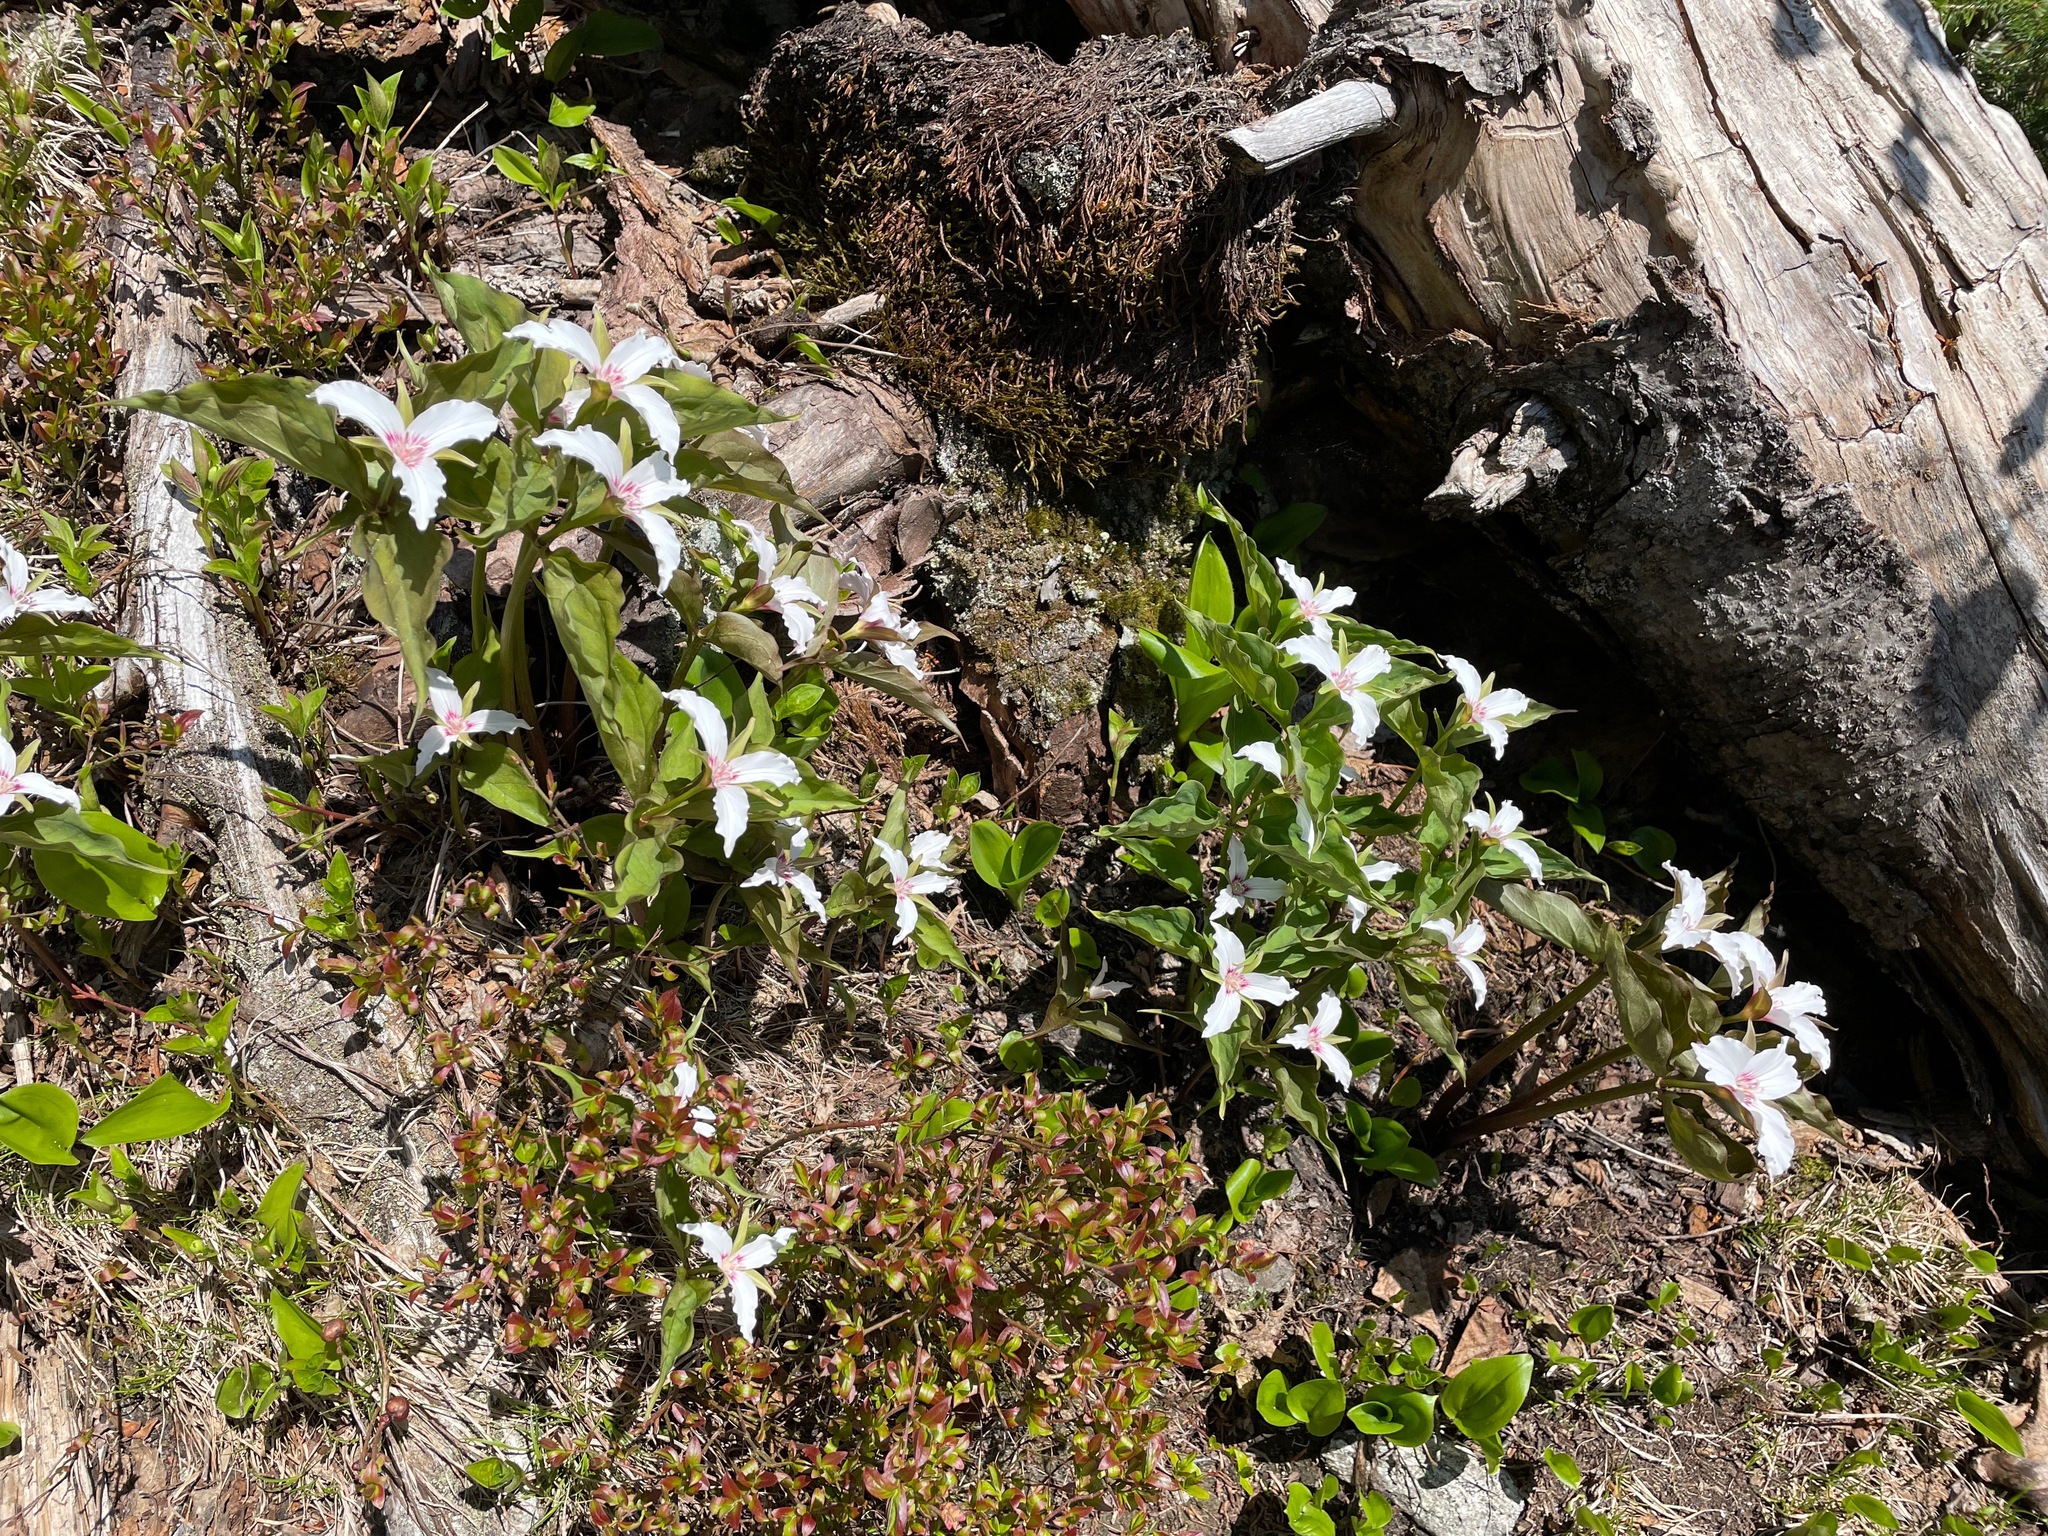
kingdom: Plantae
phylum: Tracheophyta
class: Liliopsida
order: Liliales
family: Melanthiaceae
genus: Trillium
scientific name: Trillium undulatum
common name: Paint trillium
